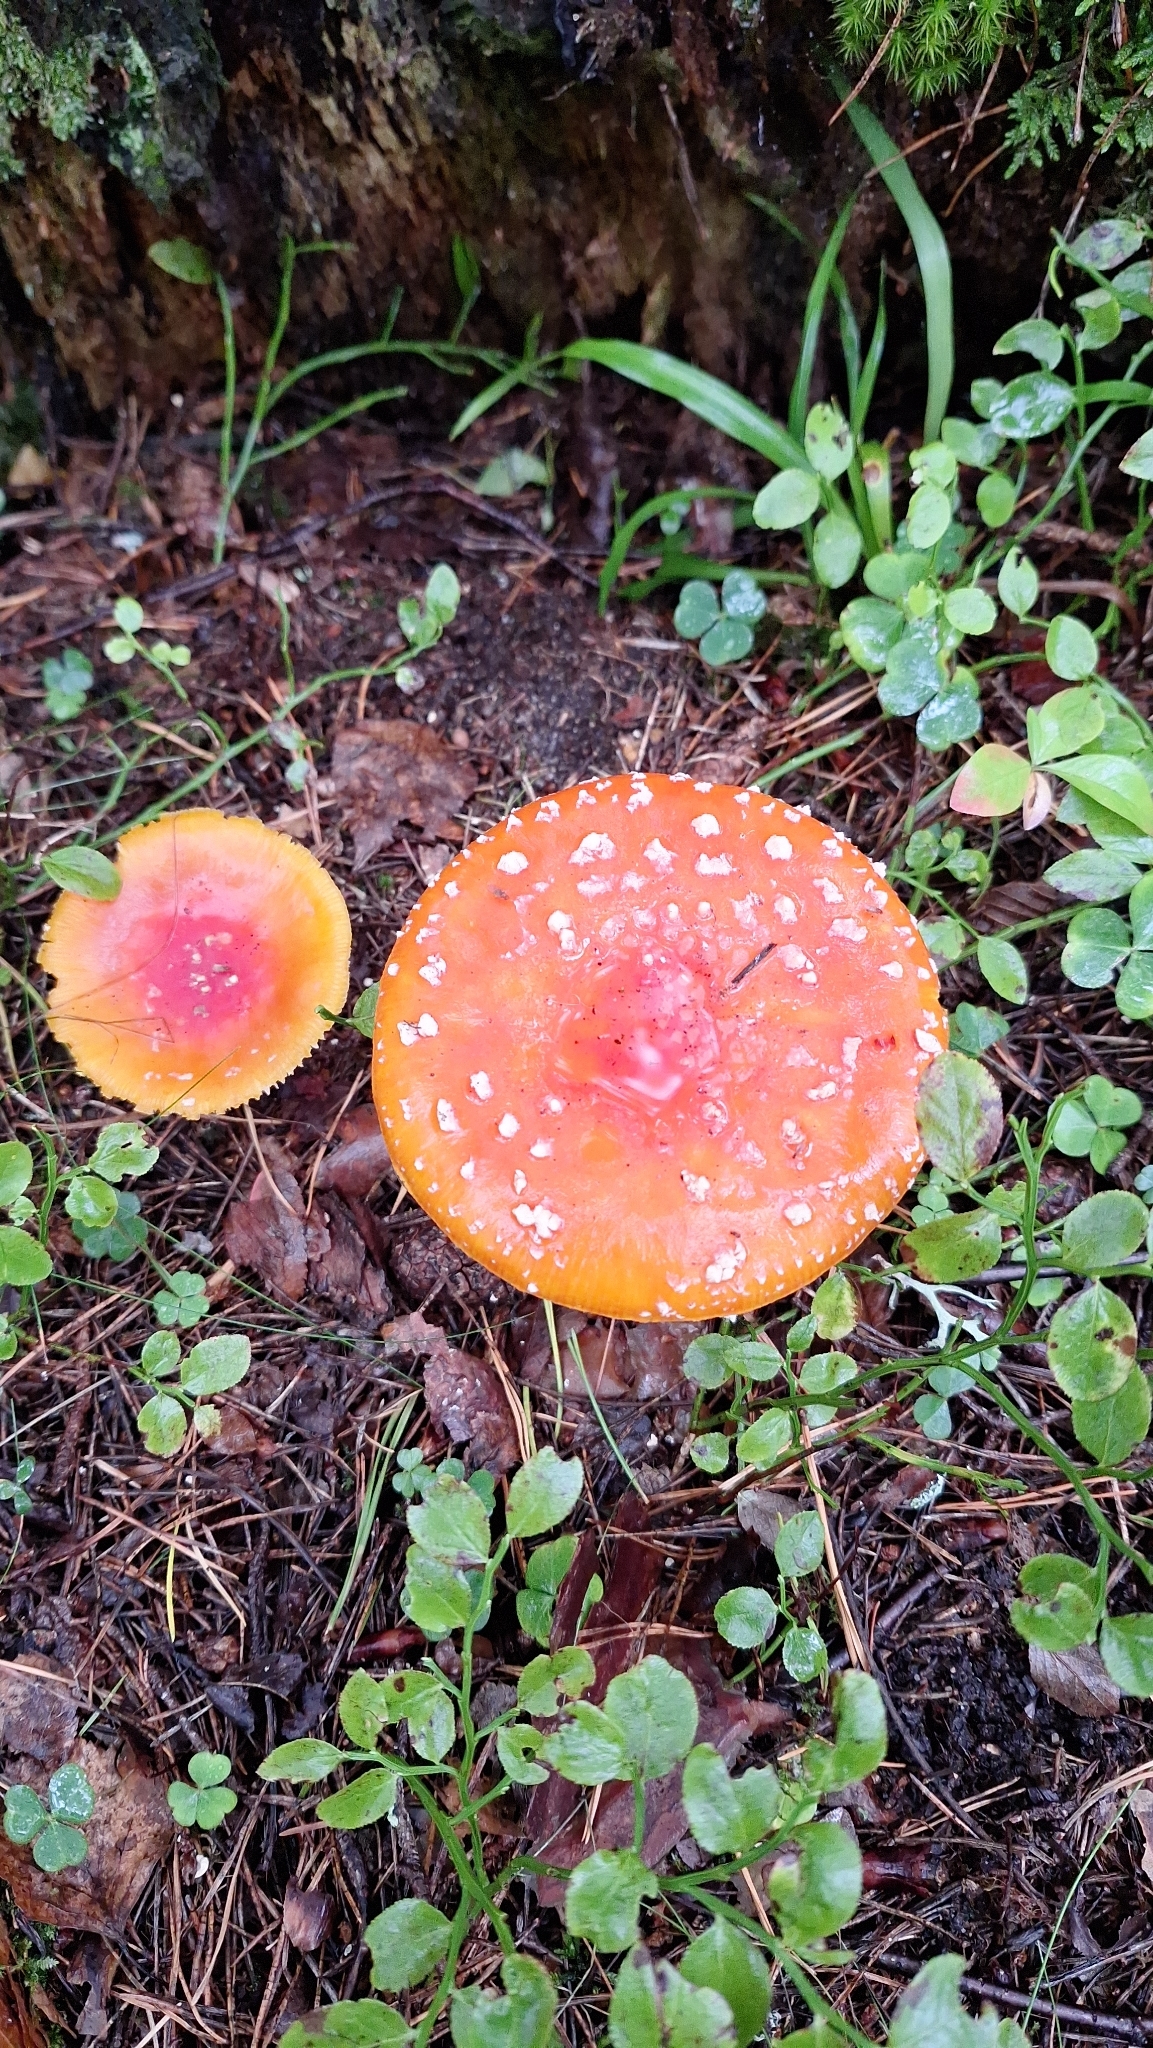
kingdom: Fungi
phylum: Basidiomycota
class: Agaricomycetes
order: Agaricales
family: Amanitaceae
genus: Amanita
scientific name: Amanita muscaria
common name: Fly agaric
